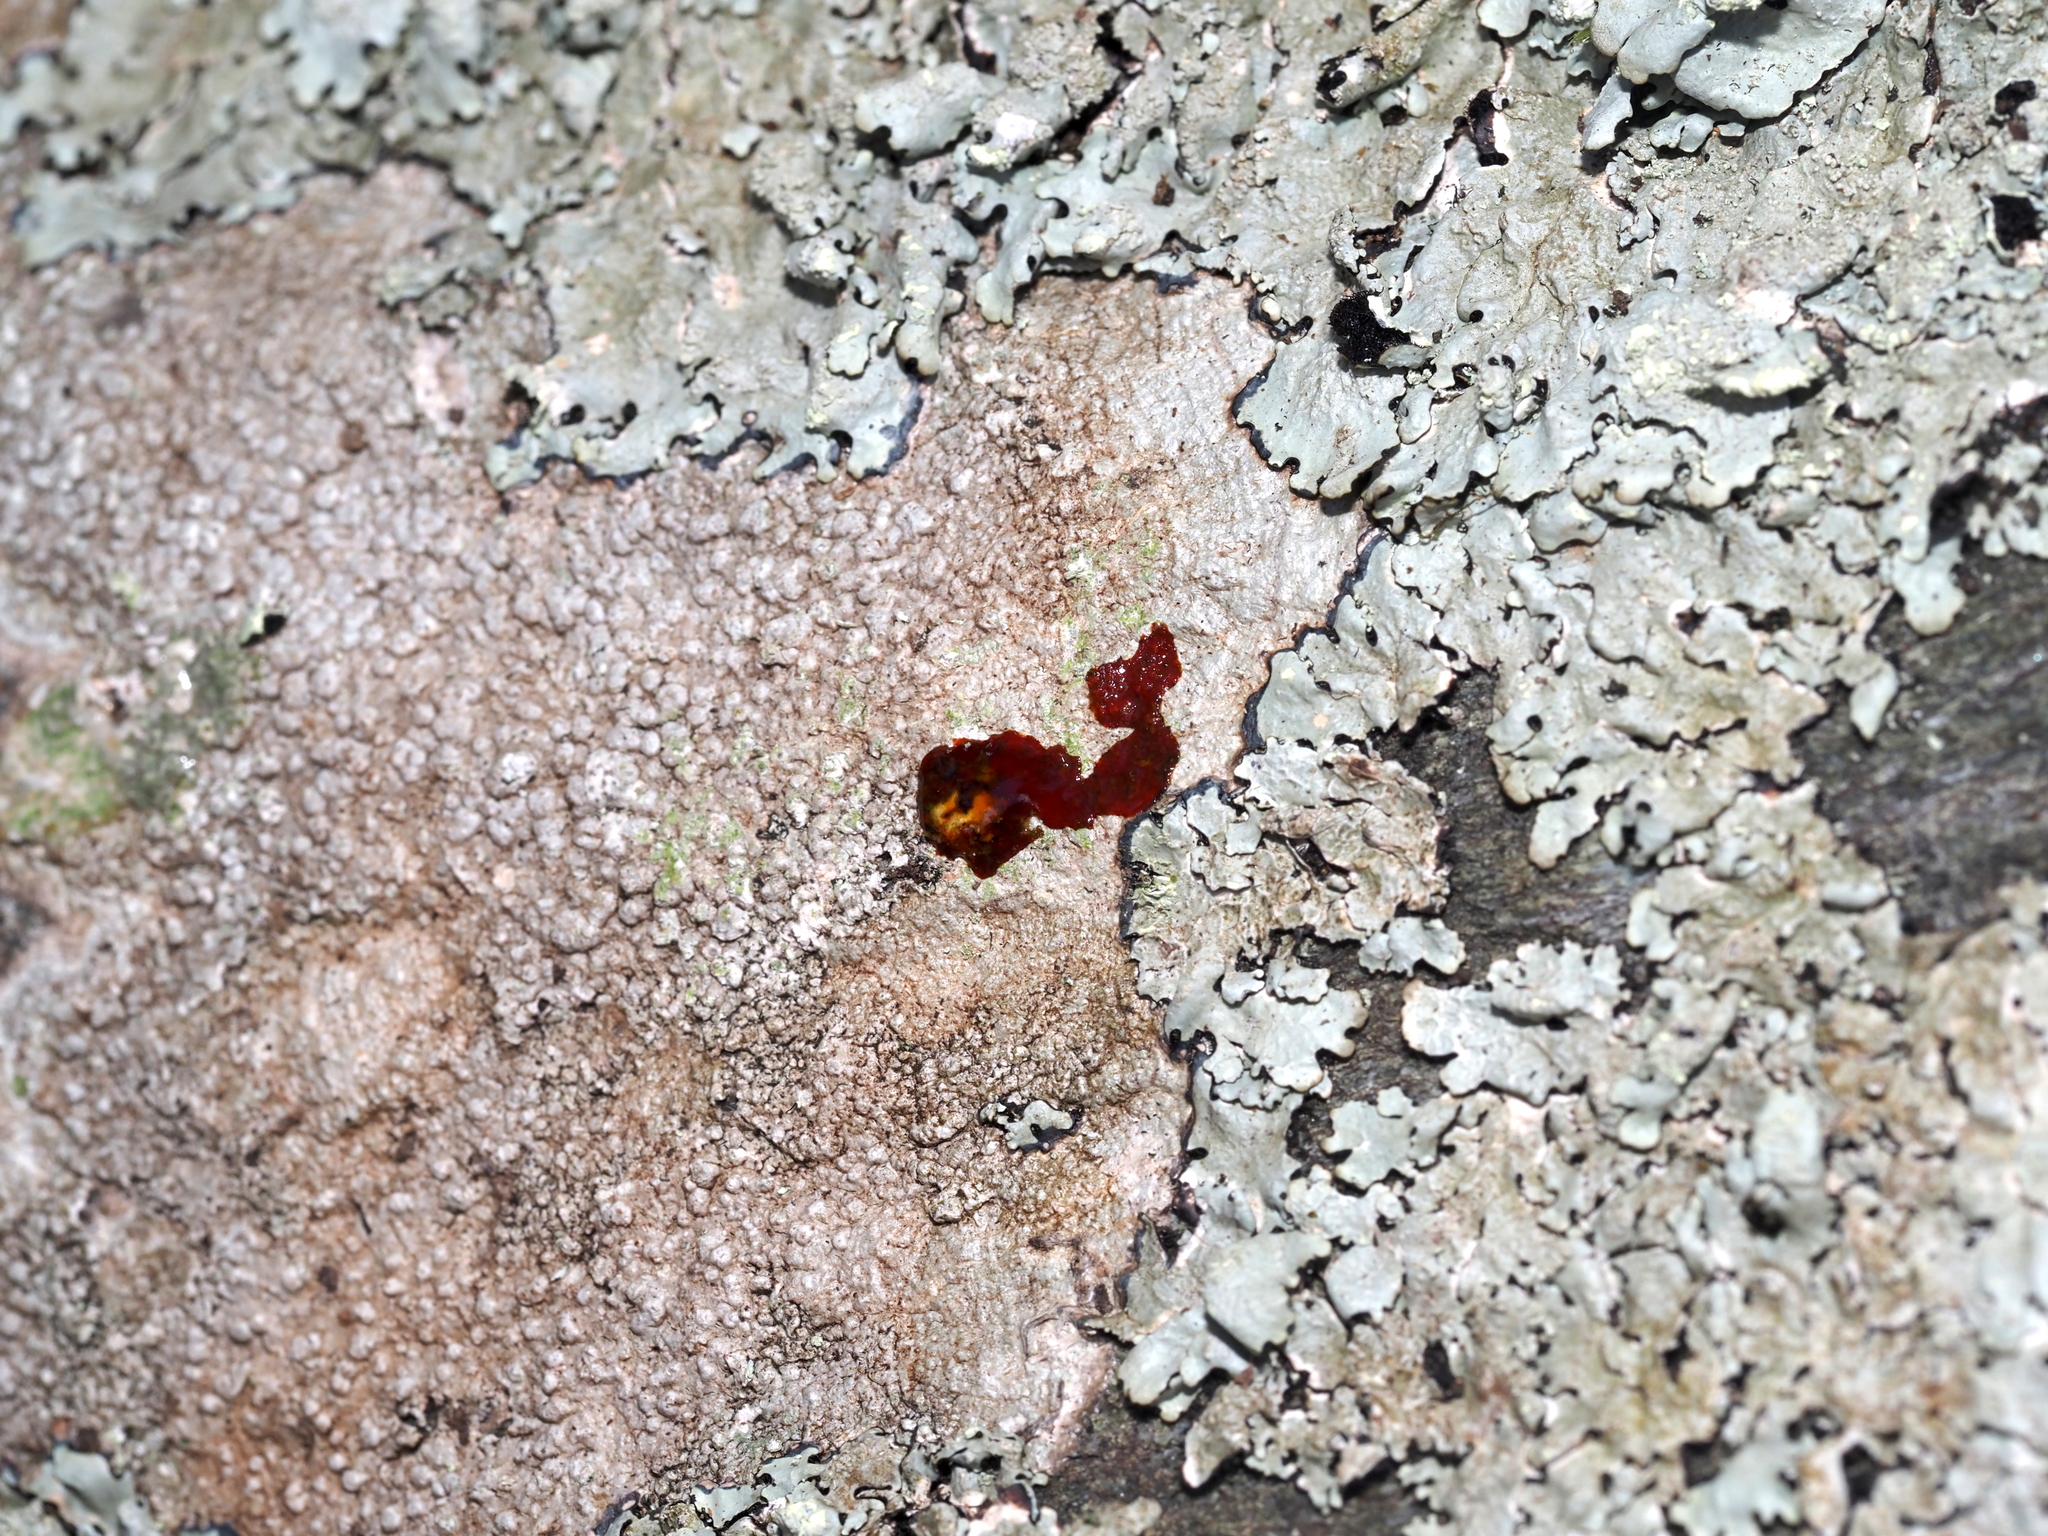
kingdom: Fungi
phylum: Ascomycota
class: Lecanoromycetes
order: Pertusariales
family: Megasporaceae
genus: Aspicilia
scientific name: Aspicilia cinerea
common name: Cinder lichen
